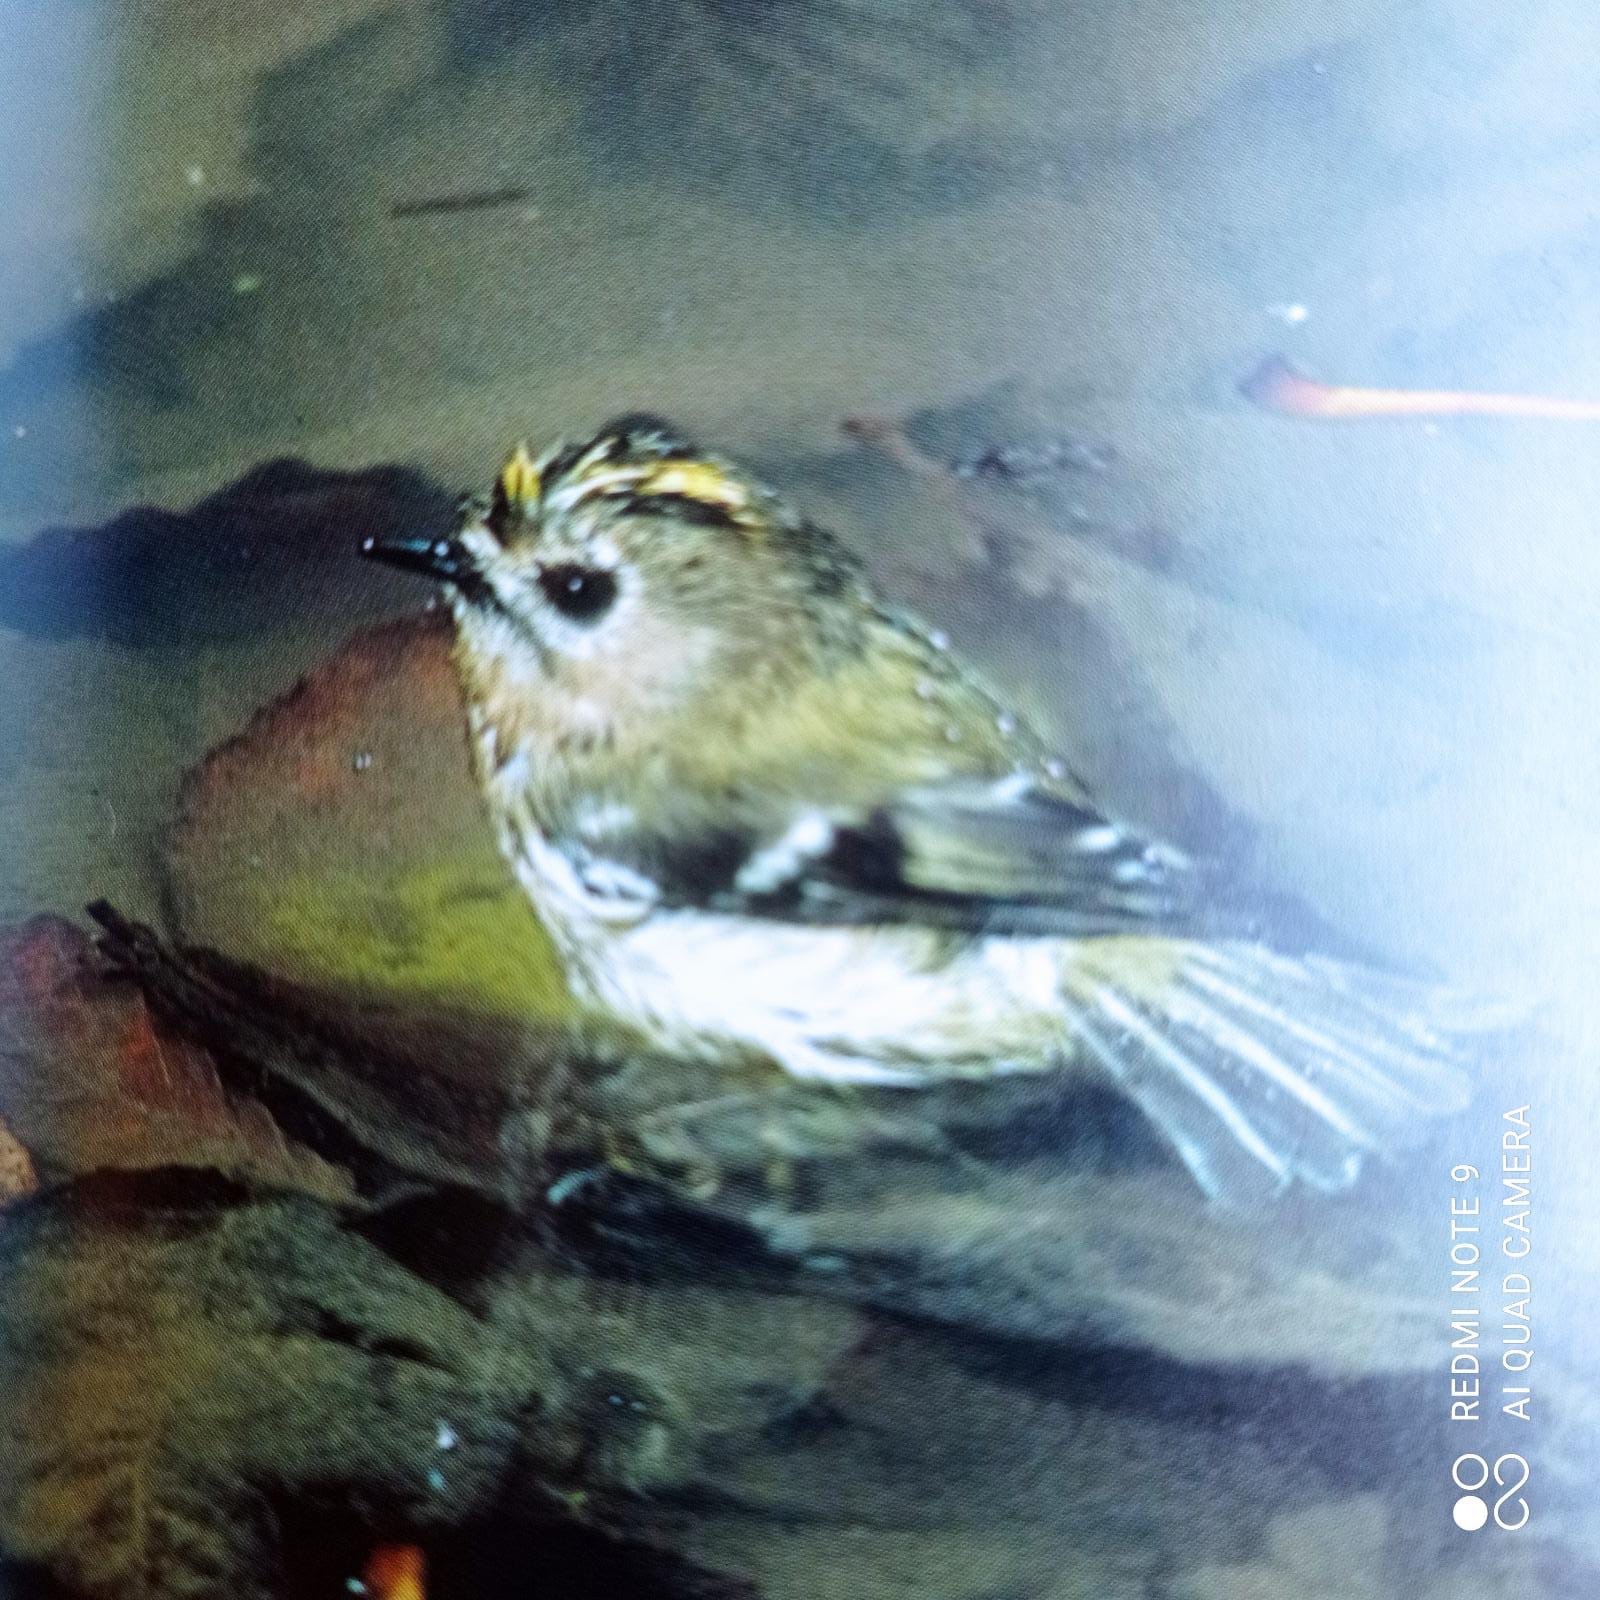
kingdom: Animalia
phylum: Chordata
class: Aves
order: Passeriformes
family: Regulidae
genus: Regulus
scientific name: Regulus regulus
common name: Goldcrest
